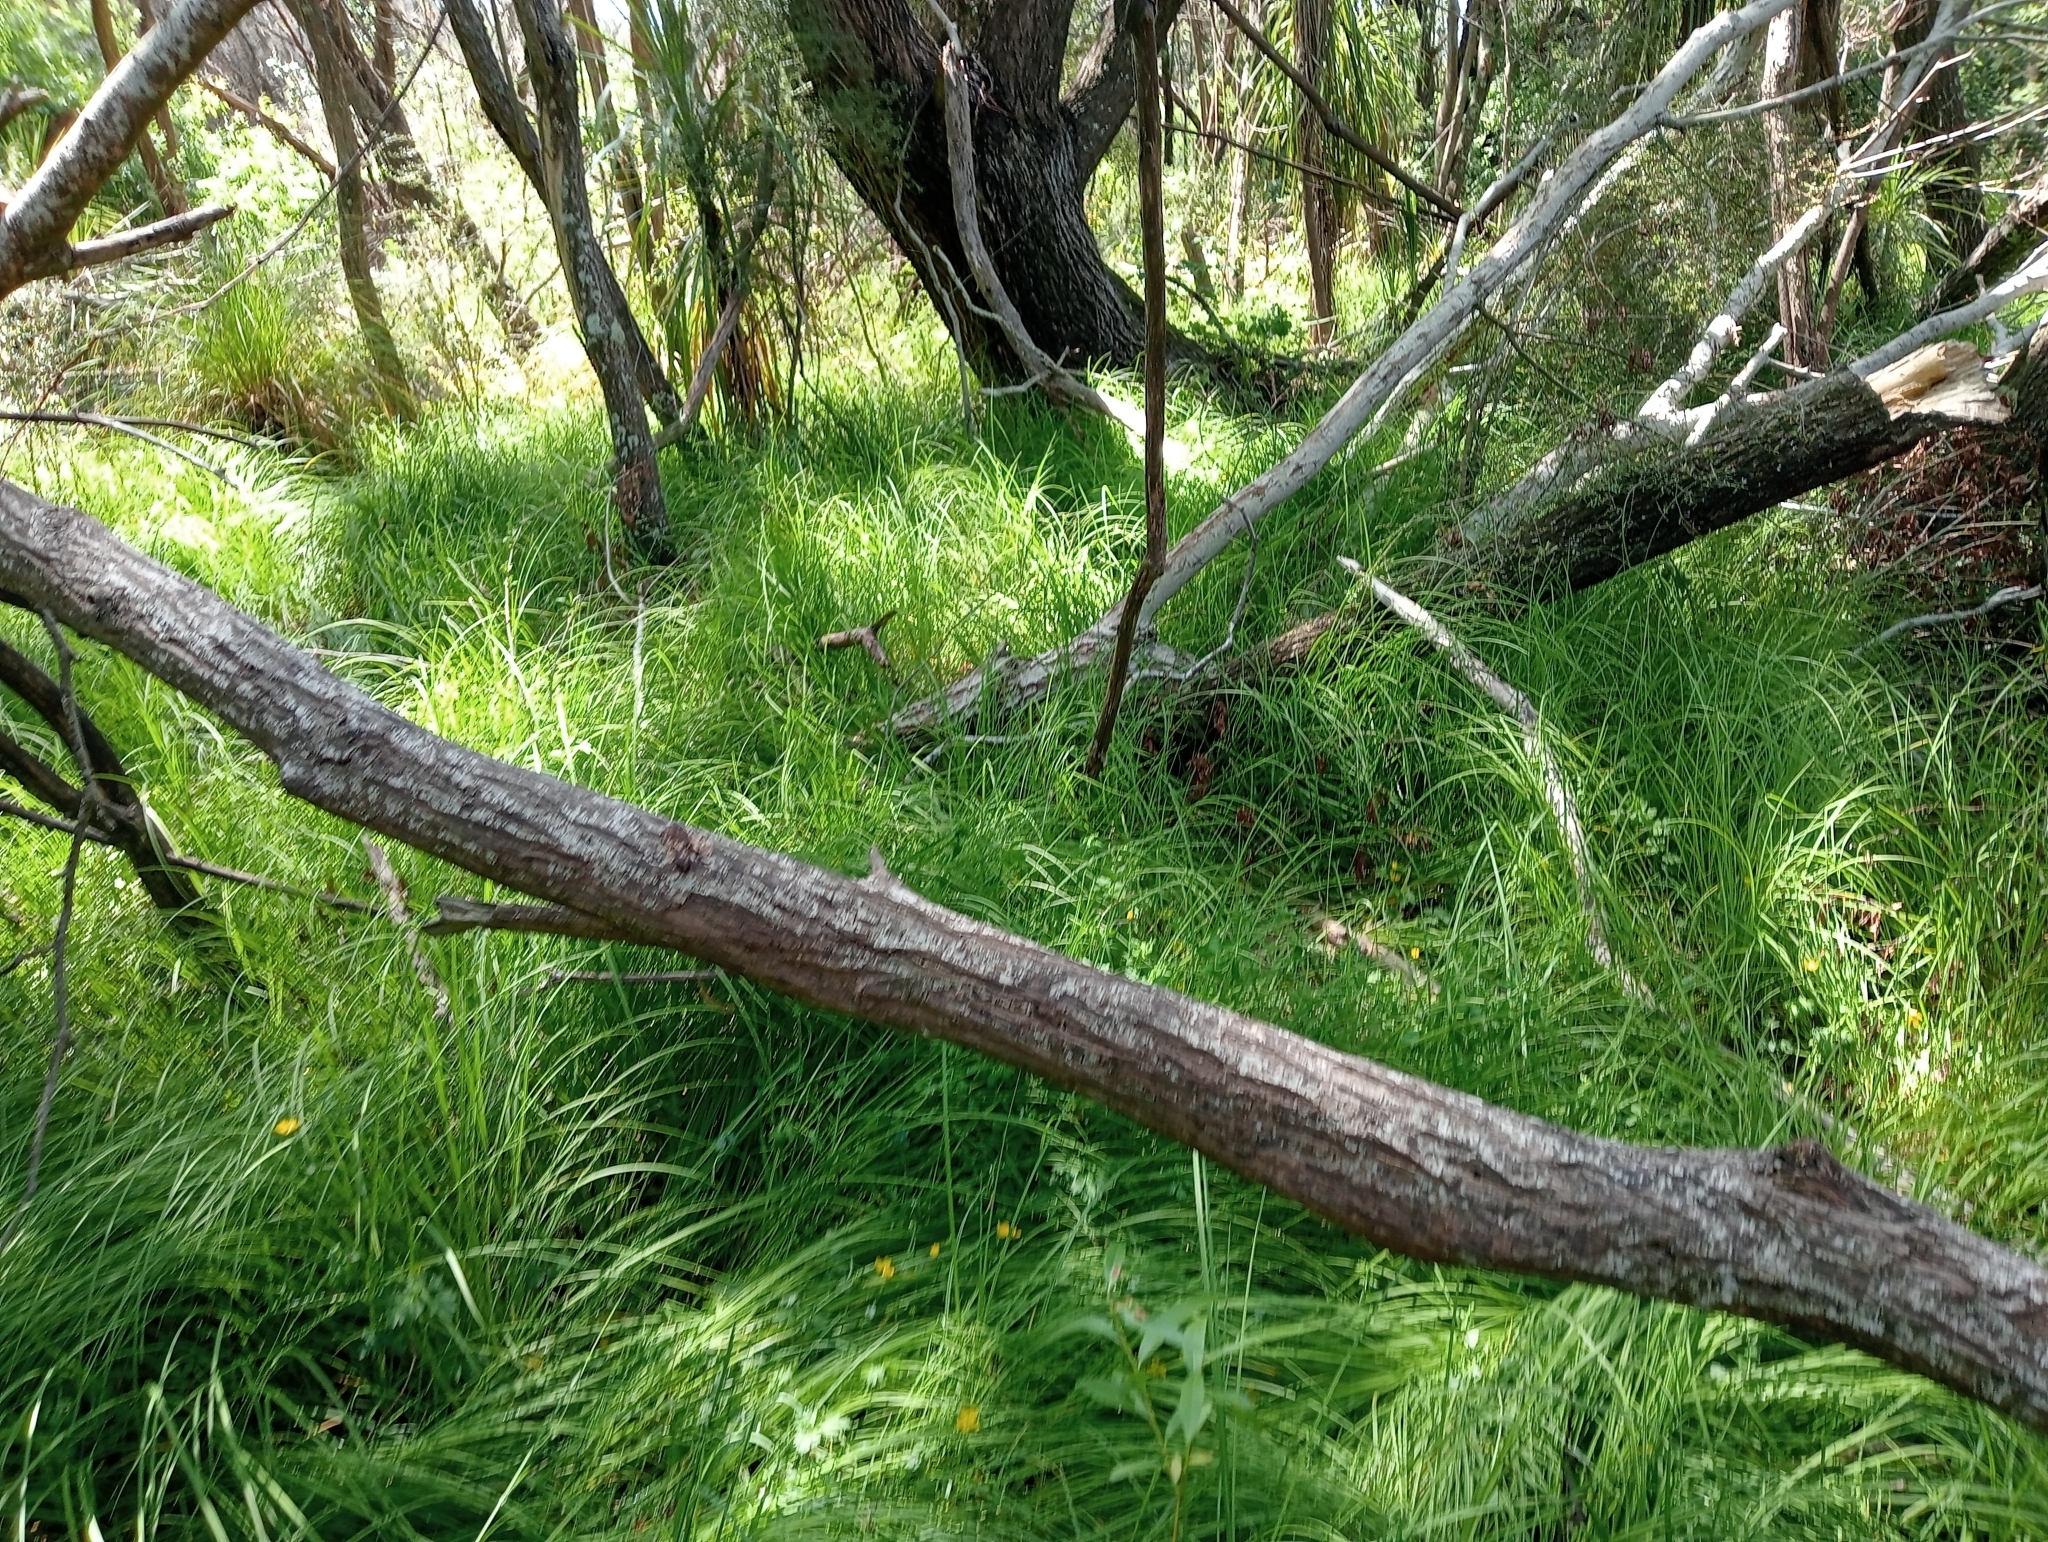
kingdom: Plantae
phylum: Tracheophyta
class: Liliopsida
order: Poales
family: Cyperaceae
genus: Carex
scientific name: Carex sinclairii
